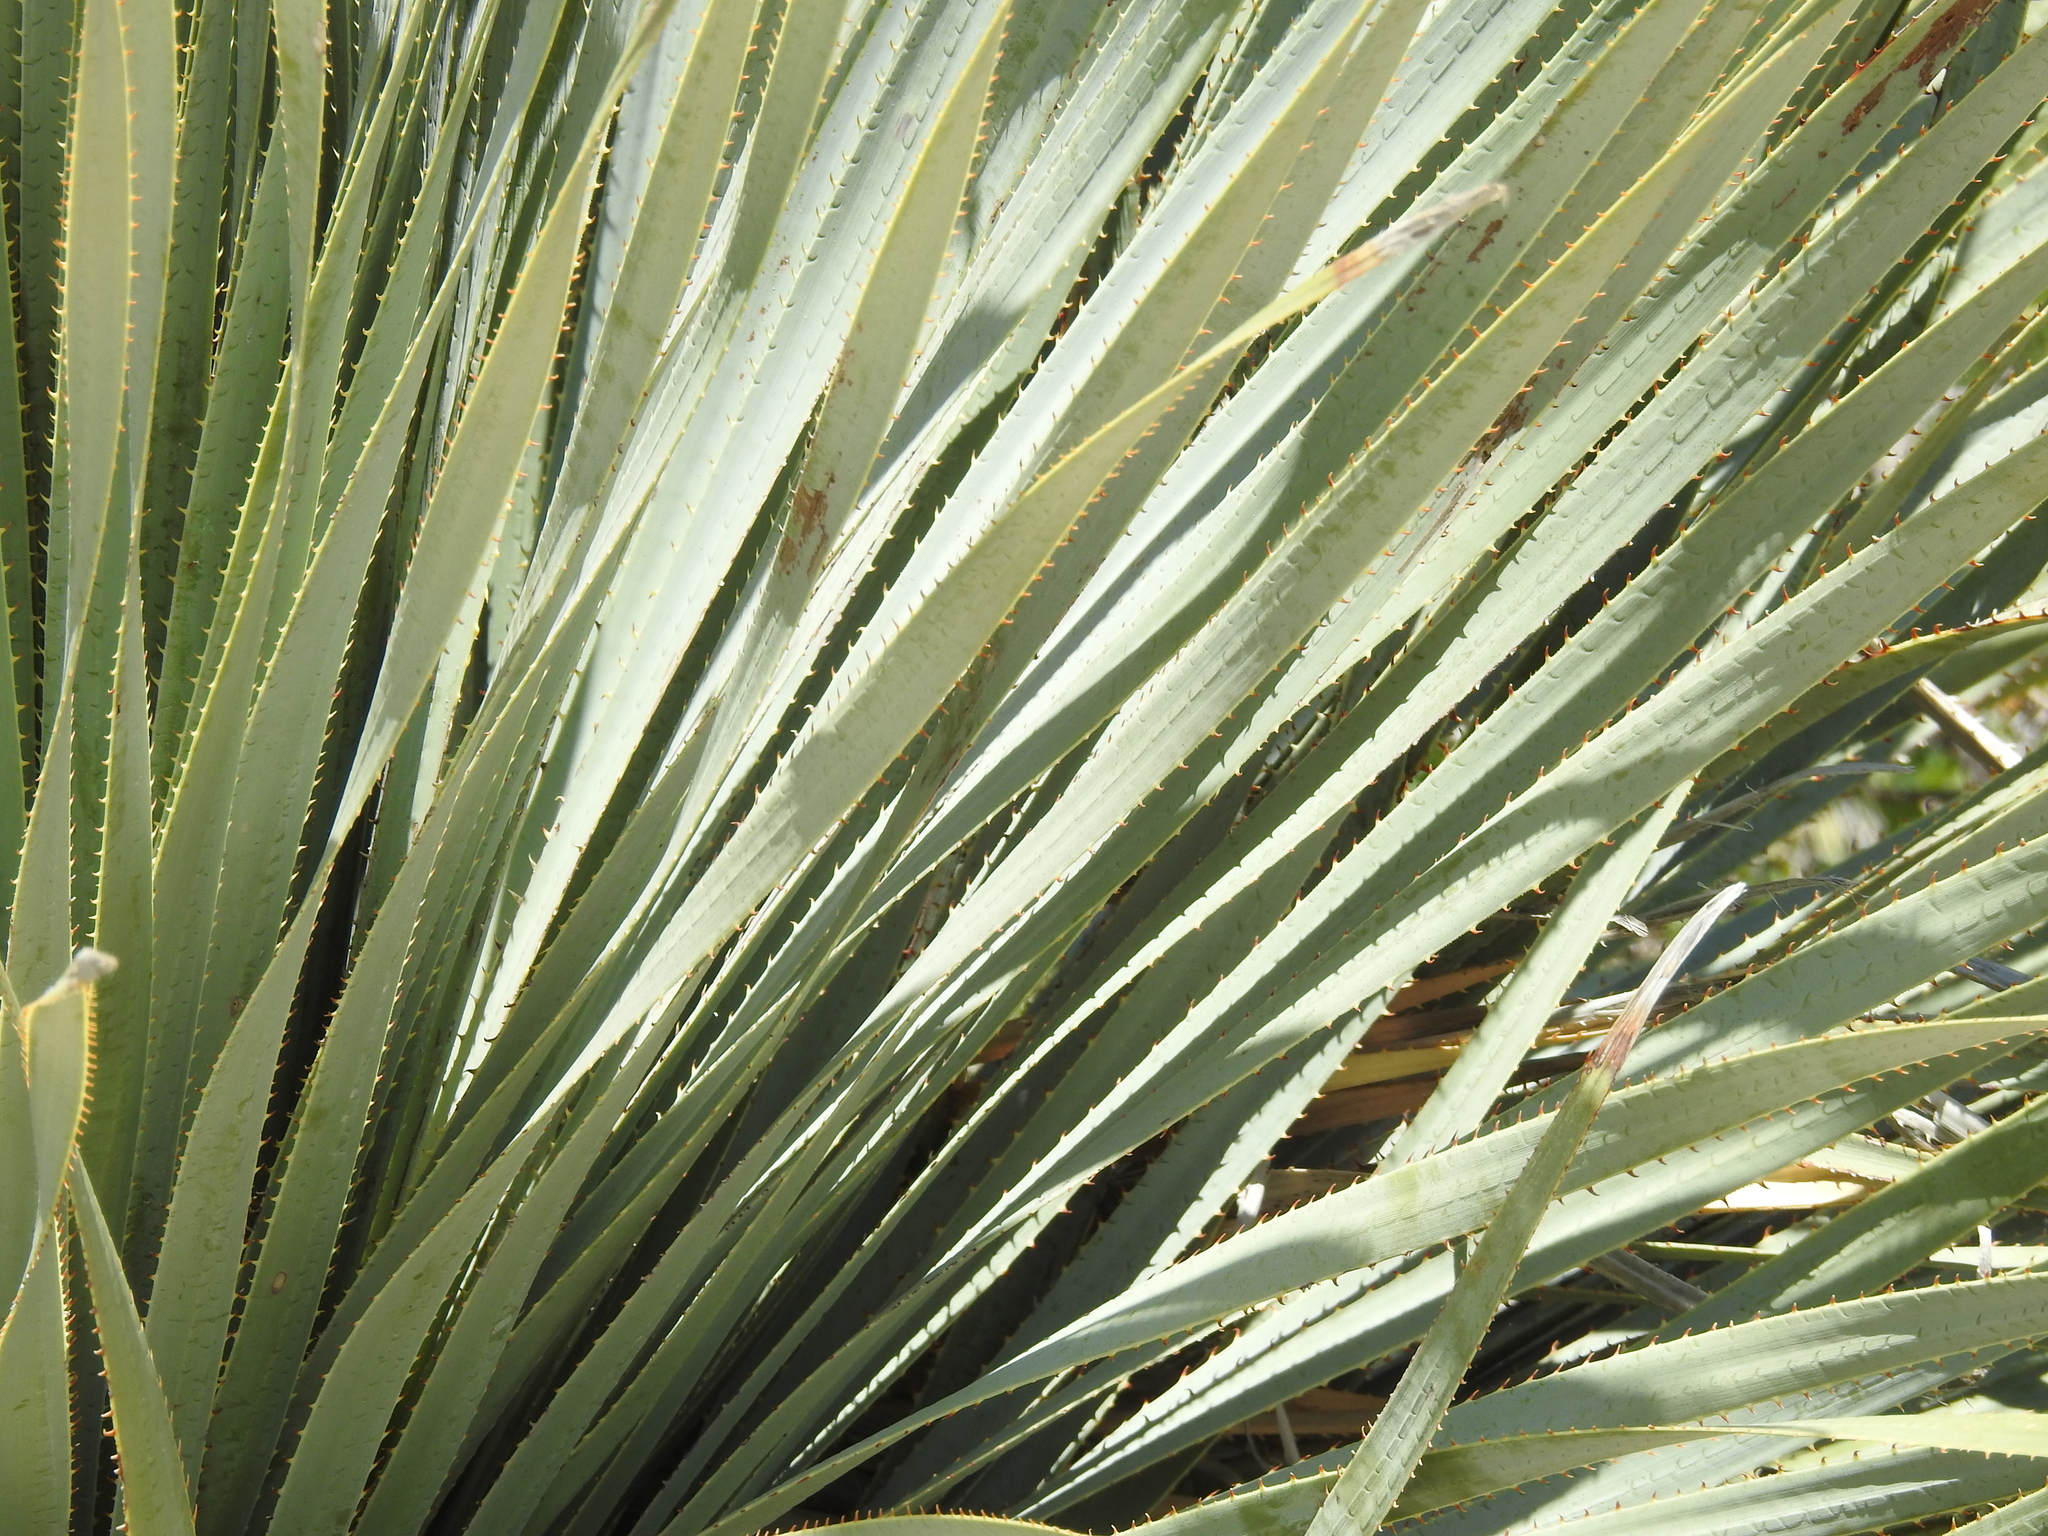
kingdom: Plantae
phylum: Tracheophyta
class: Liliopsida
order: Asparagales
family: Asparagaceae
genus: Dasylirion
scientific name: Dasylirion wheeleri
